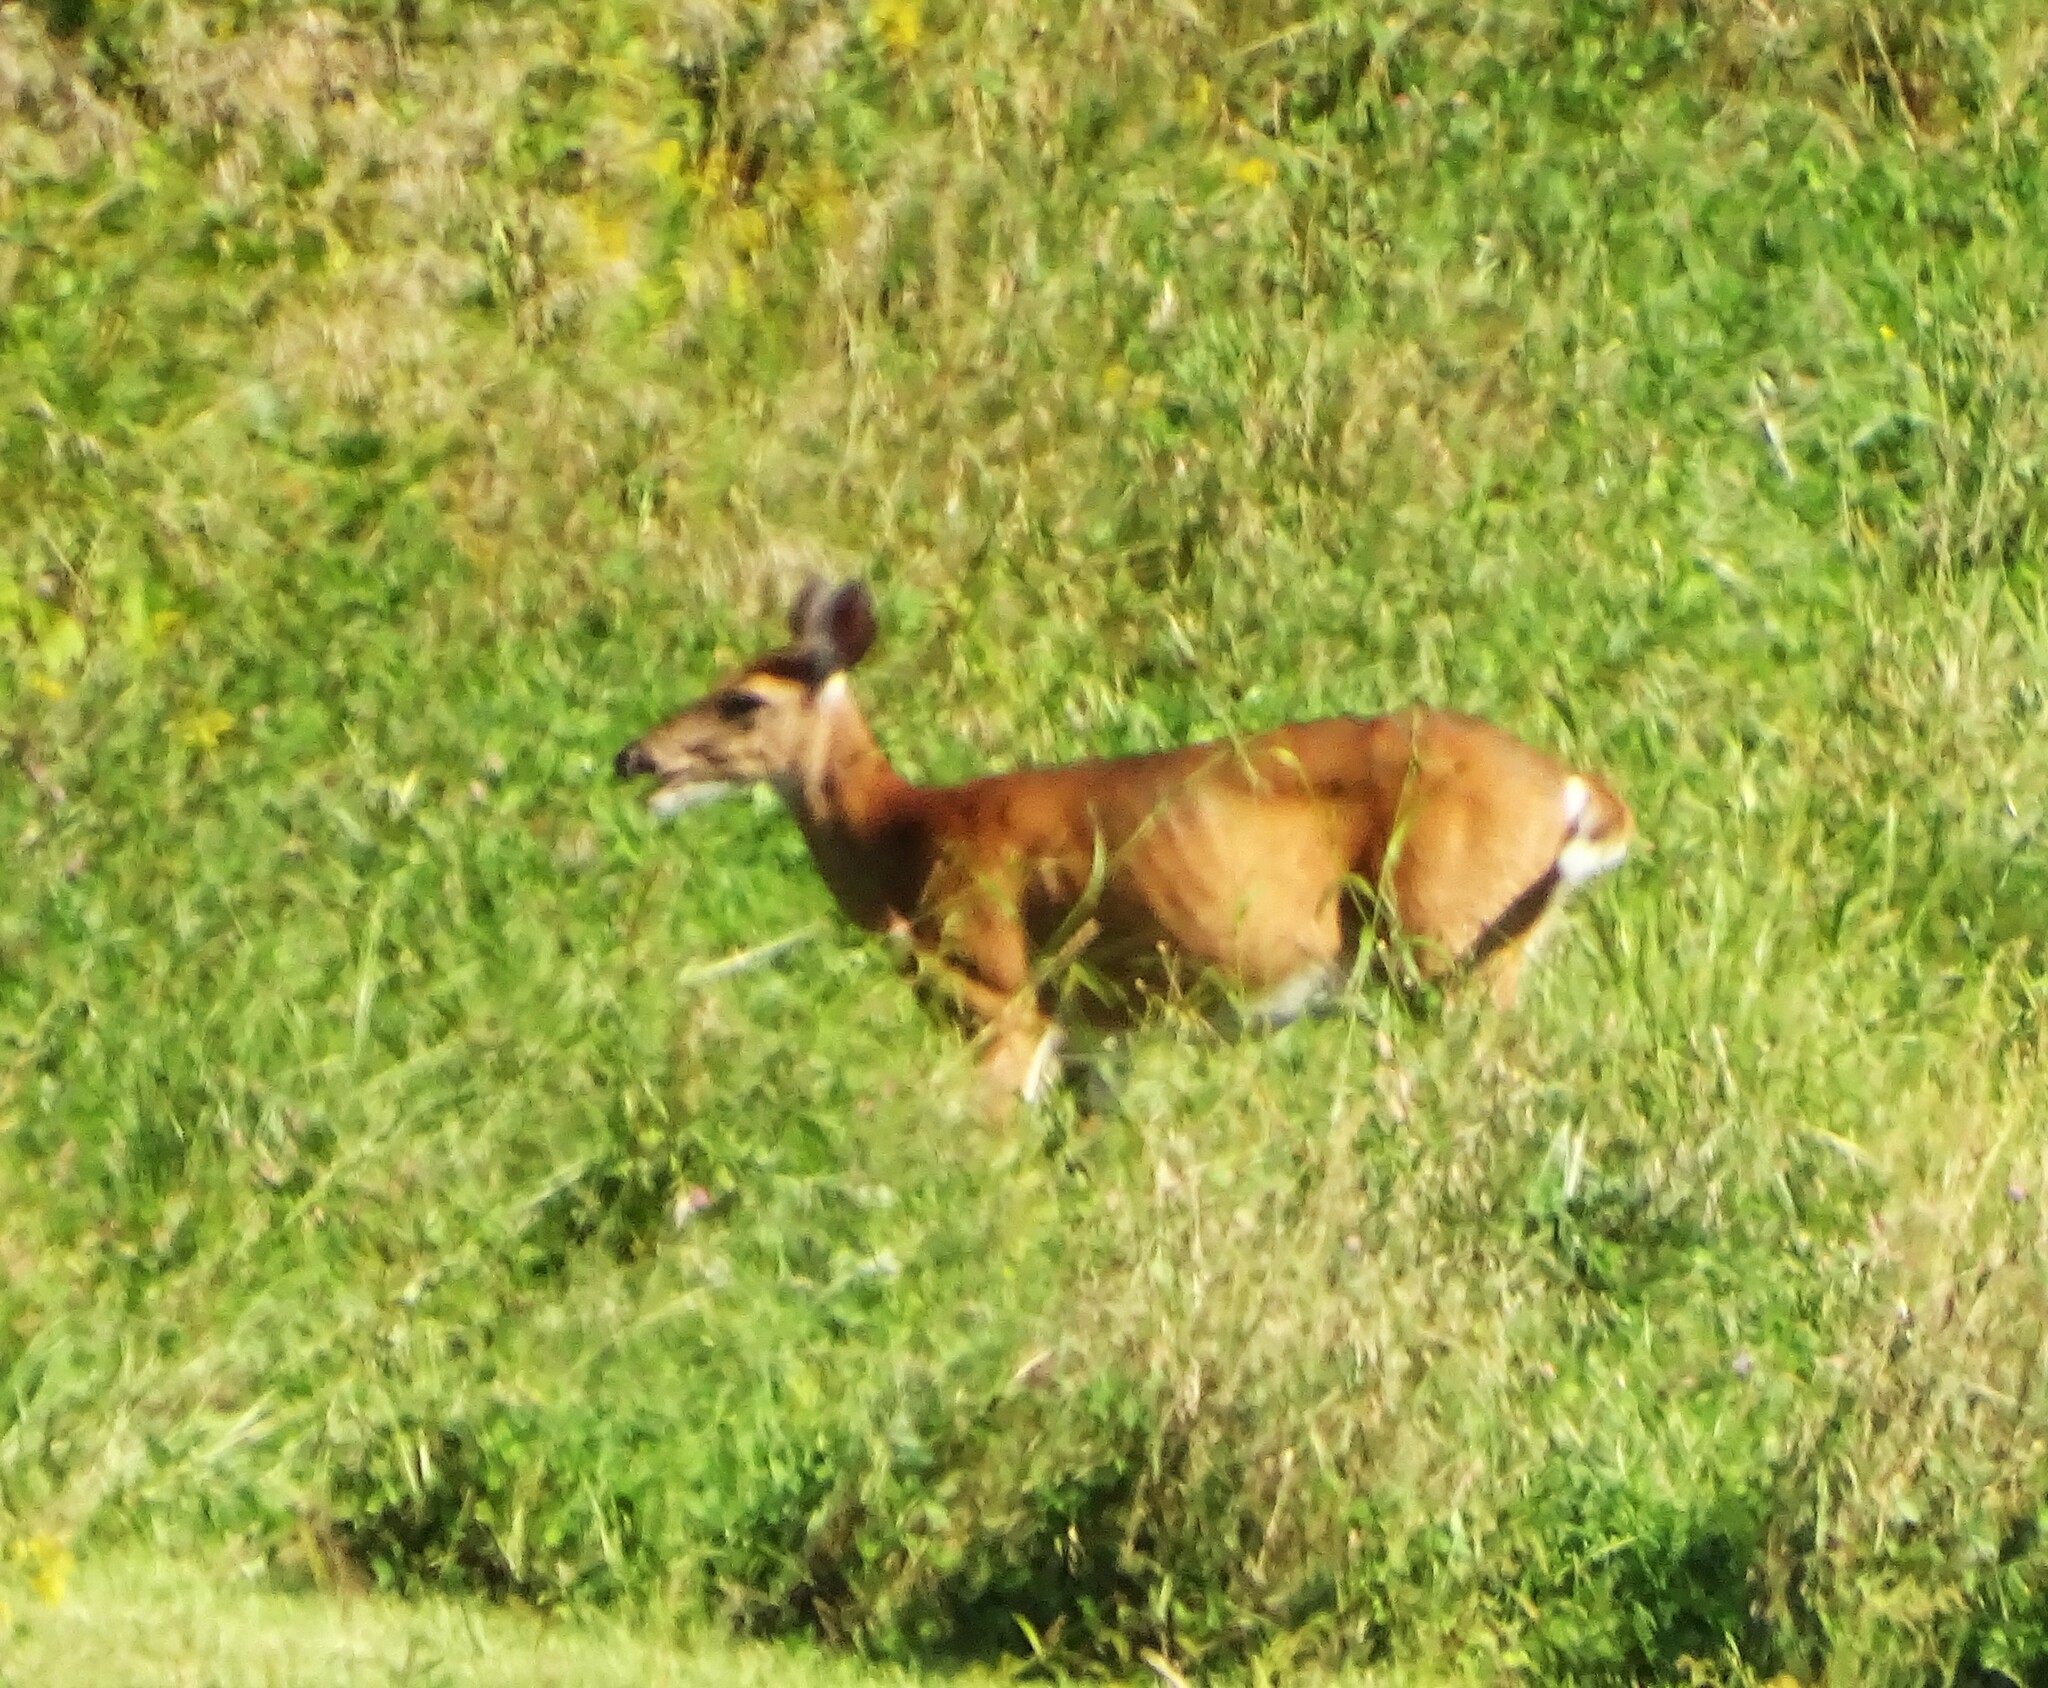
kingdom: Animalia
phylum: Chordata
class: Mammalia
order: Artiodactyla
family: Cervidae
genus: Odocoileus
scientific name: Odocoileus virginianus
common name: White-tailed deer
